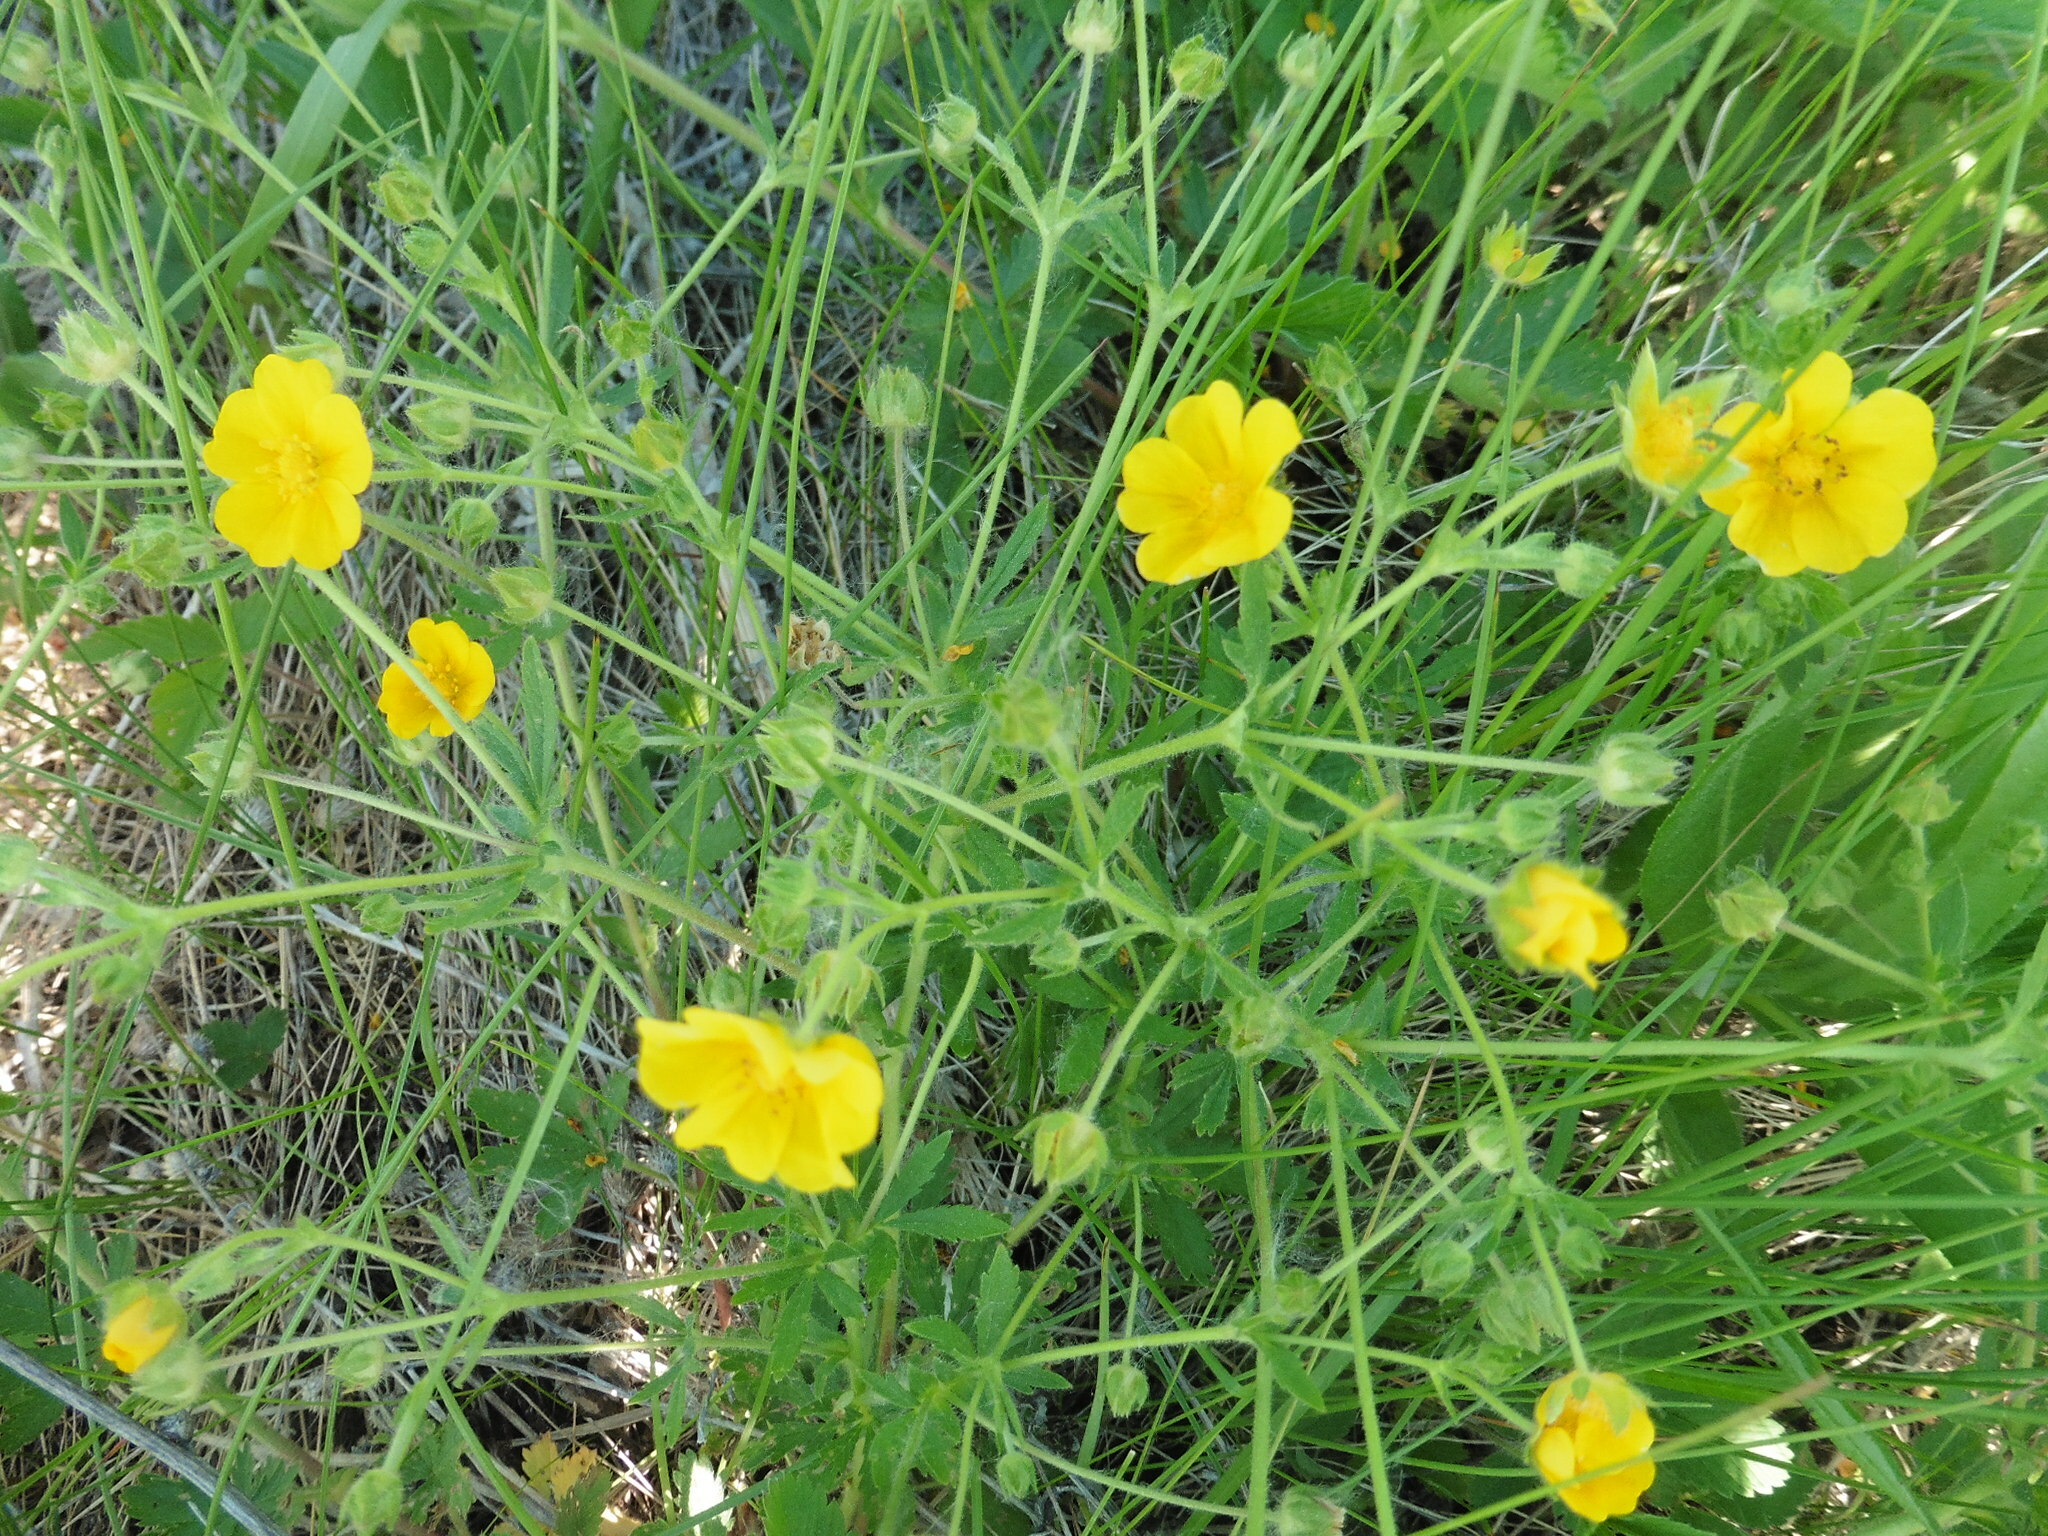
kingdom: Plantae
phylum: Tracheophyta
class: Magnoliopsida
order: Rosales
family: Rosaceae
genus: Potentilla
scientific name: Potentilla thuringiaca
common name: European cinquefoil
